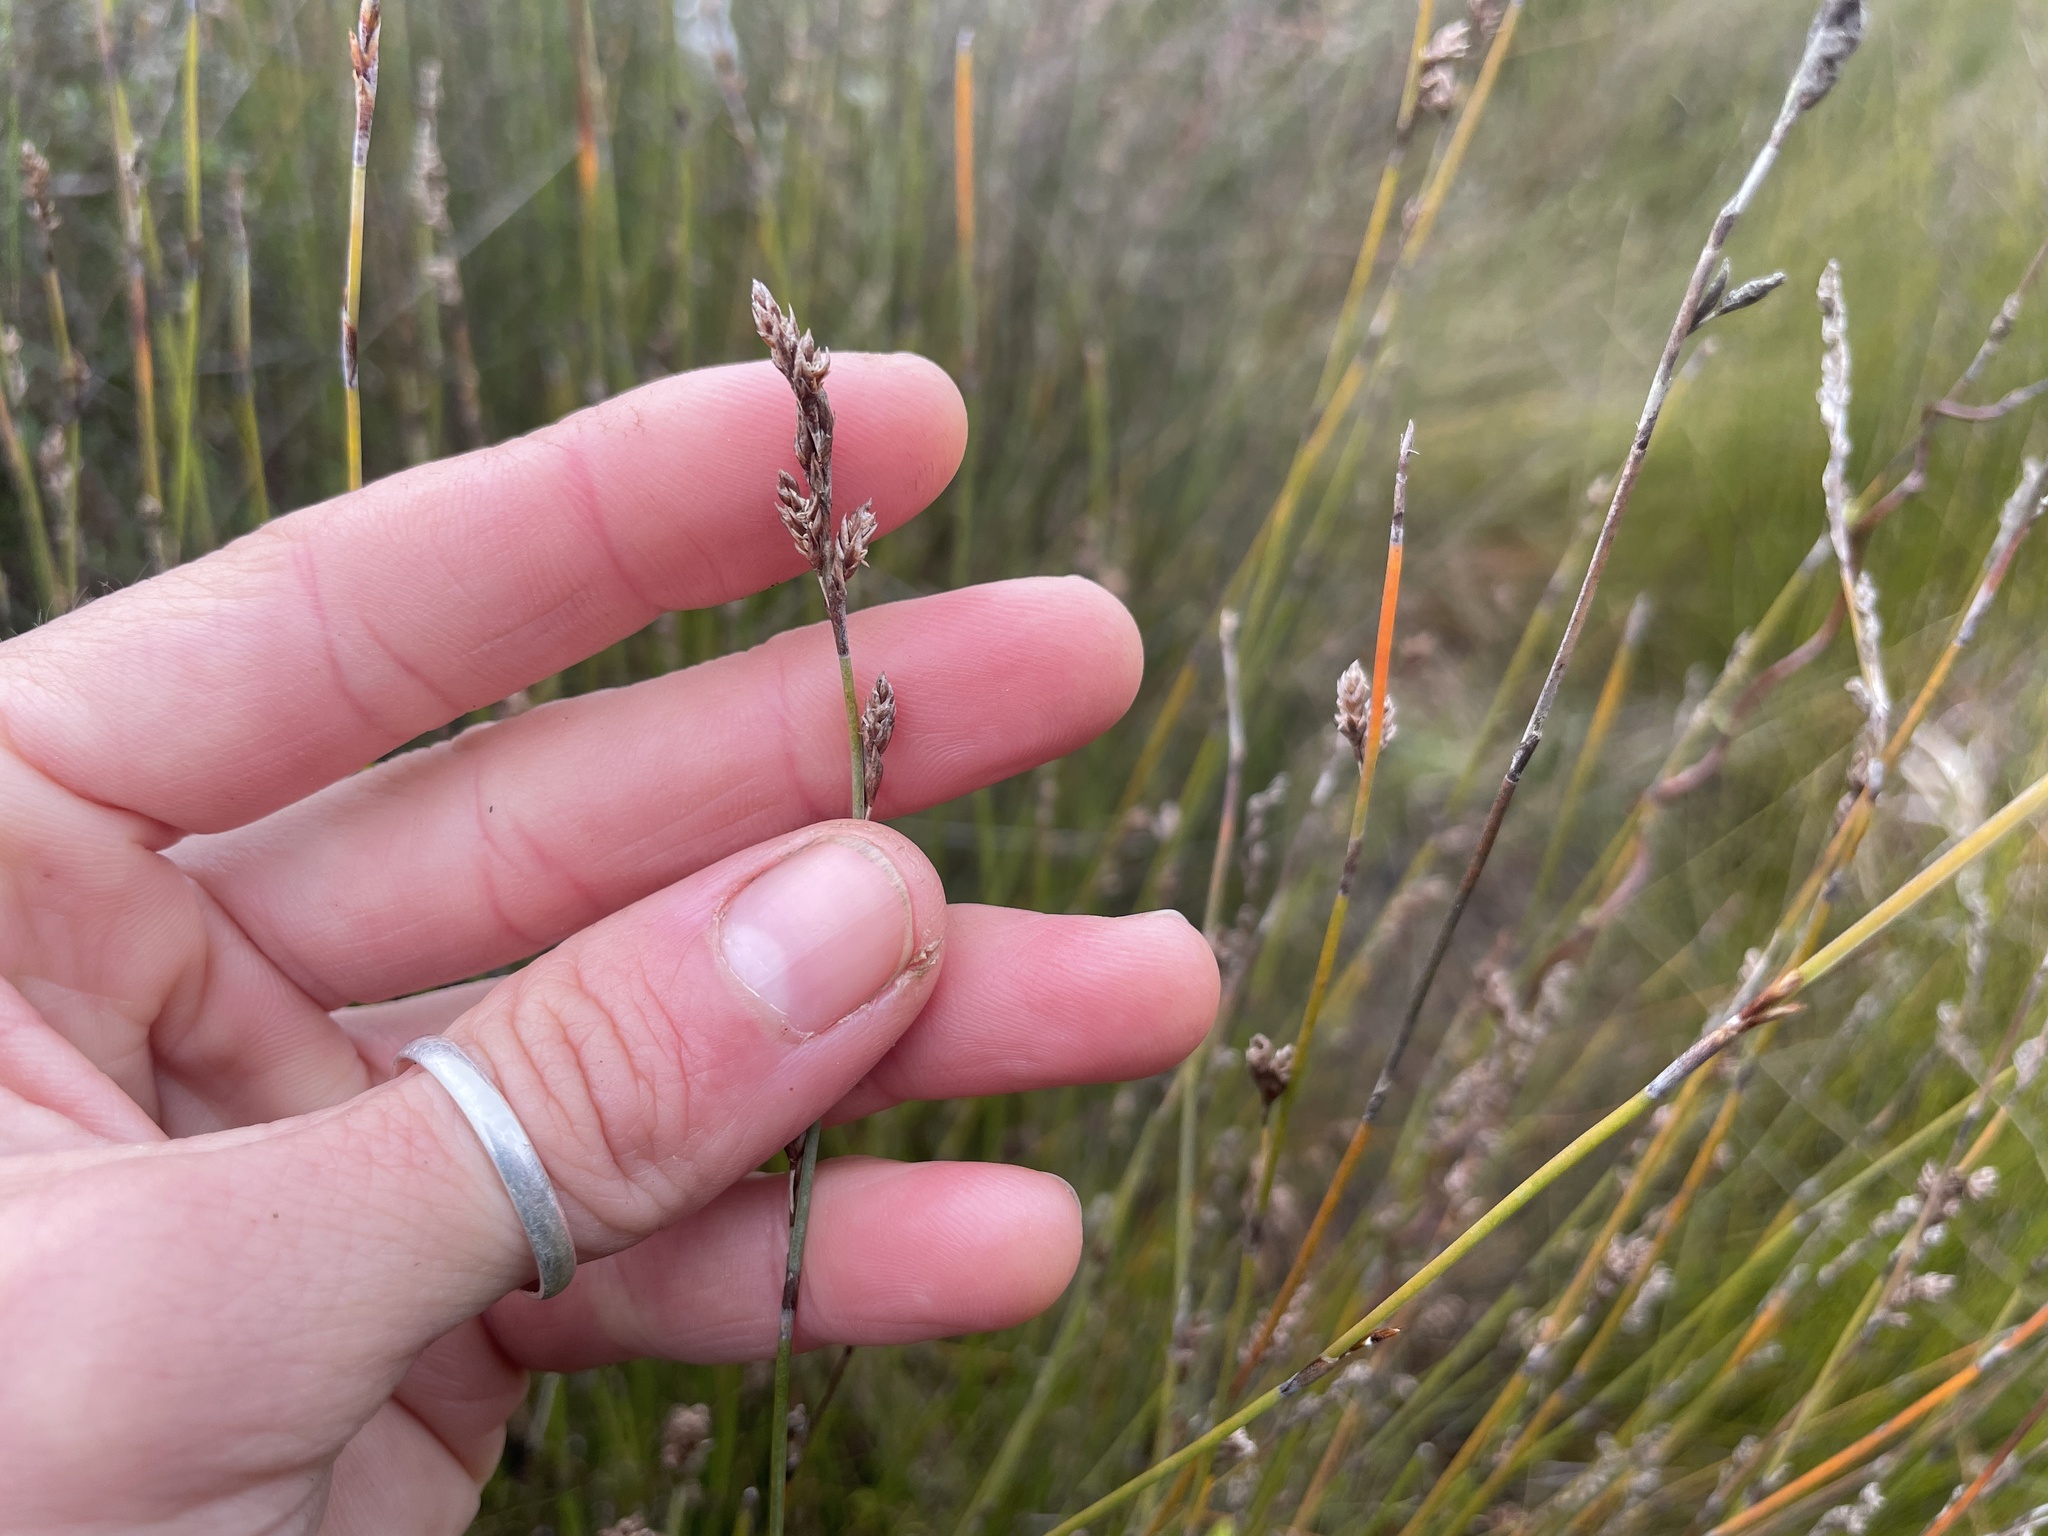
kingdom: Plantae
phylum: Tracheophyta
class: Liliopsida
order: Poales
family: Restionaceae
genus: Apodasmia
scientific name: Apodasmia similis
